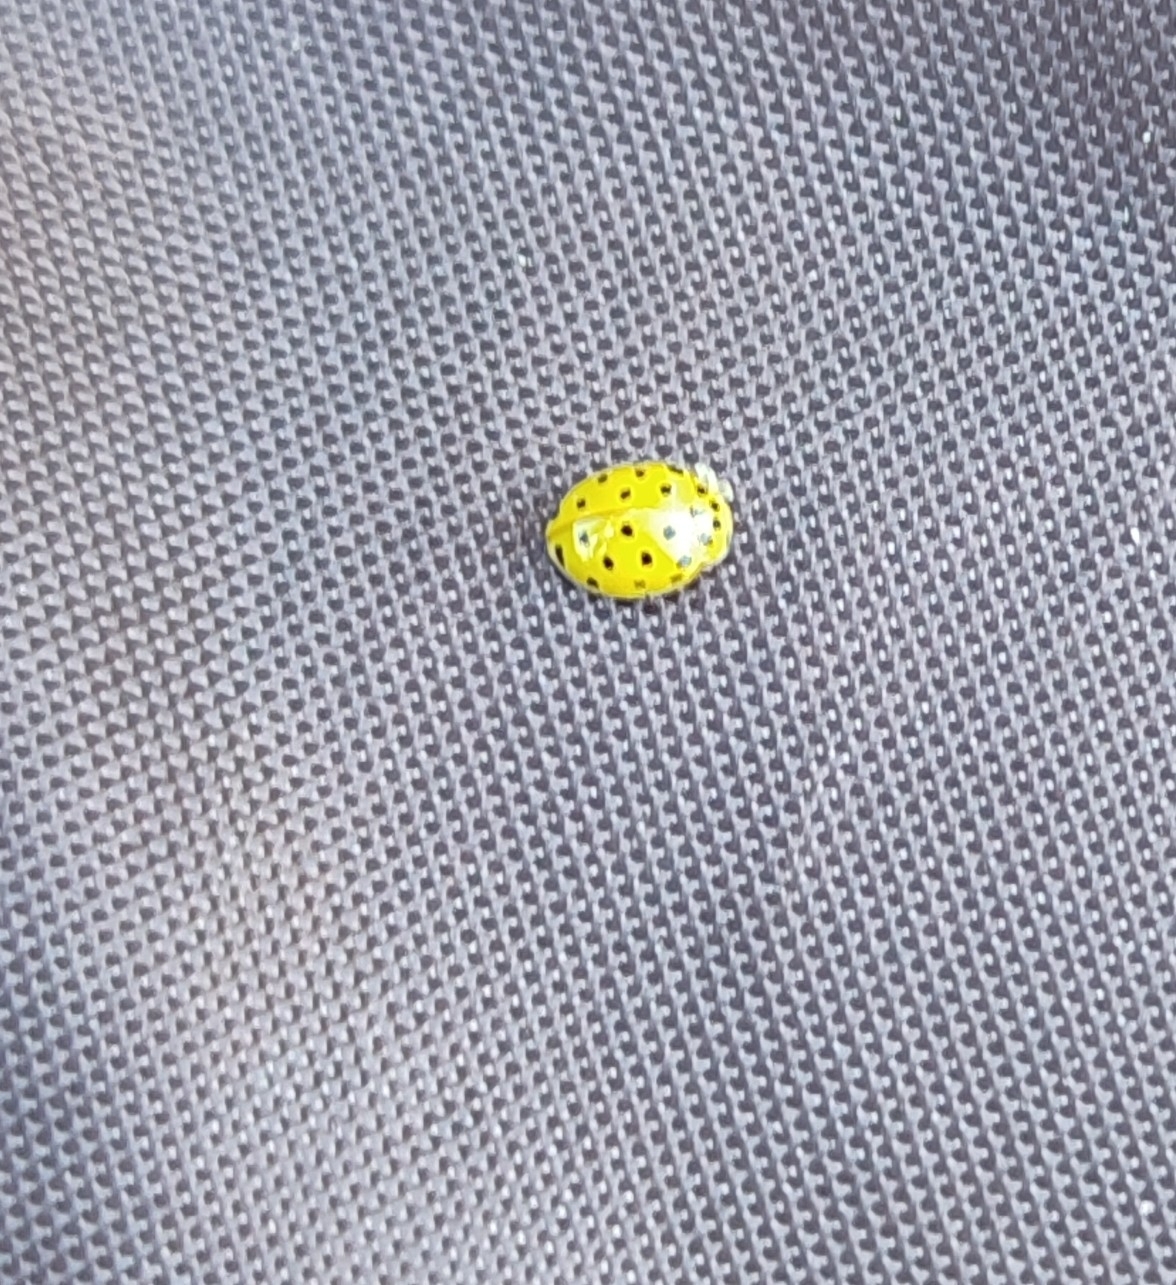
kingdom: Animalia
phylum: Arthropoda
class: Insecta
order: Coleoptera
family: Coccinellidae
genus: Psyllobora
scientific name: Psyllobora vigintiduopunctata
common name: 22-spot ladybird
